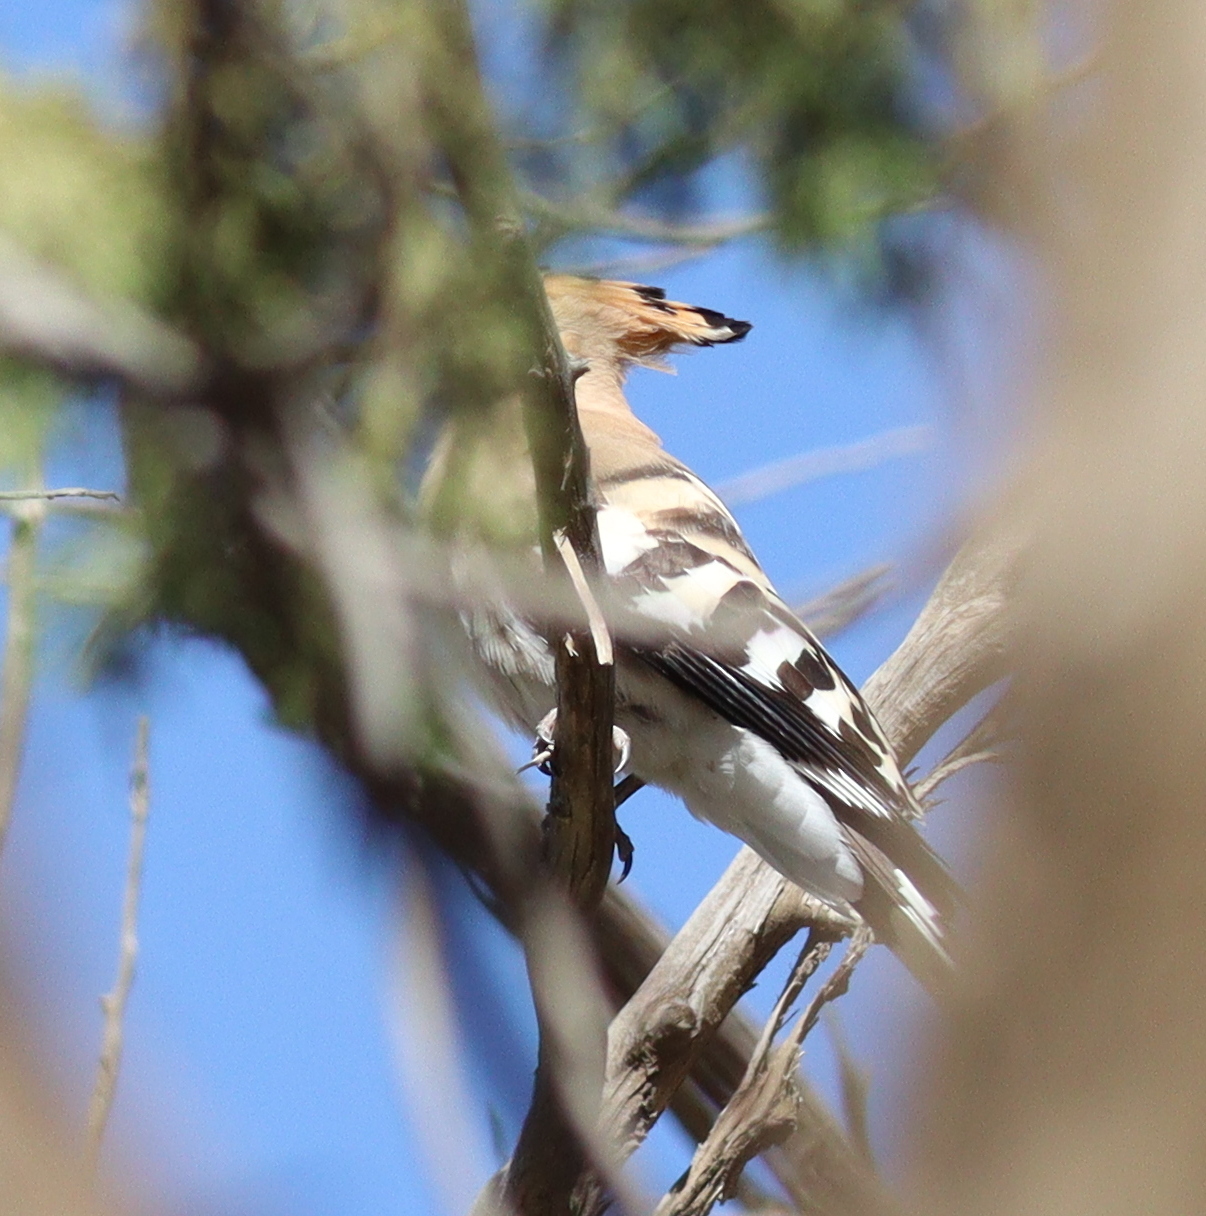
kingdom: Animalia
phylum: Chordata
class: Aves
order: Bucerotiformes
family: Upupidae
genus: Upupa
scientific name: Upupa epops
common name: Eurasian hoopoe
